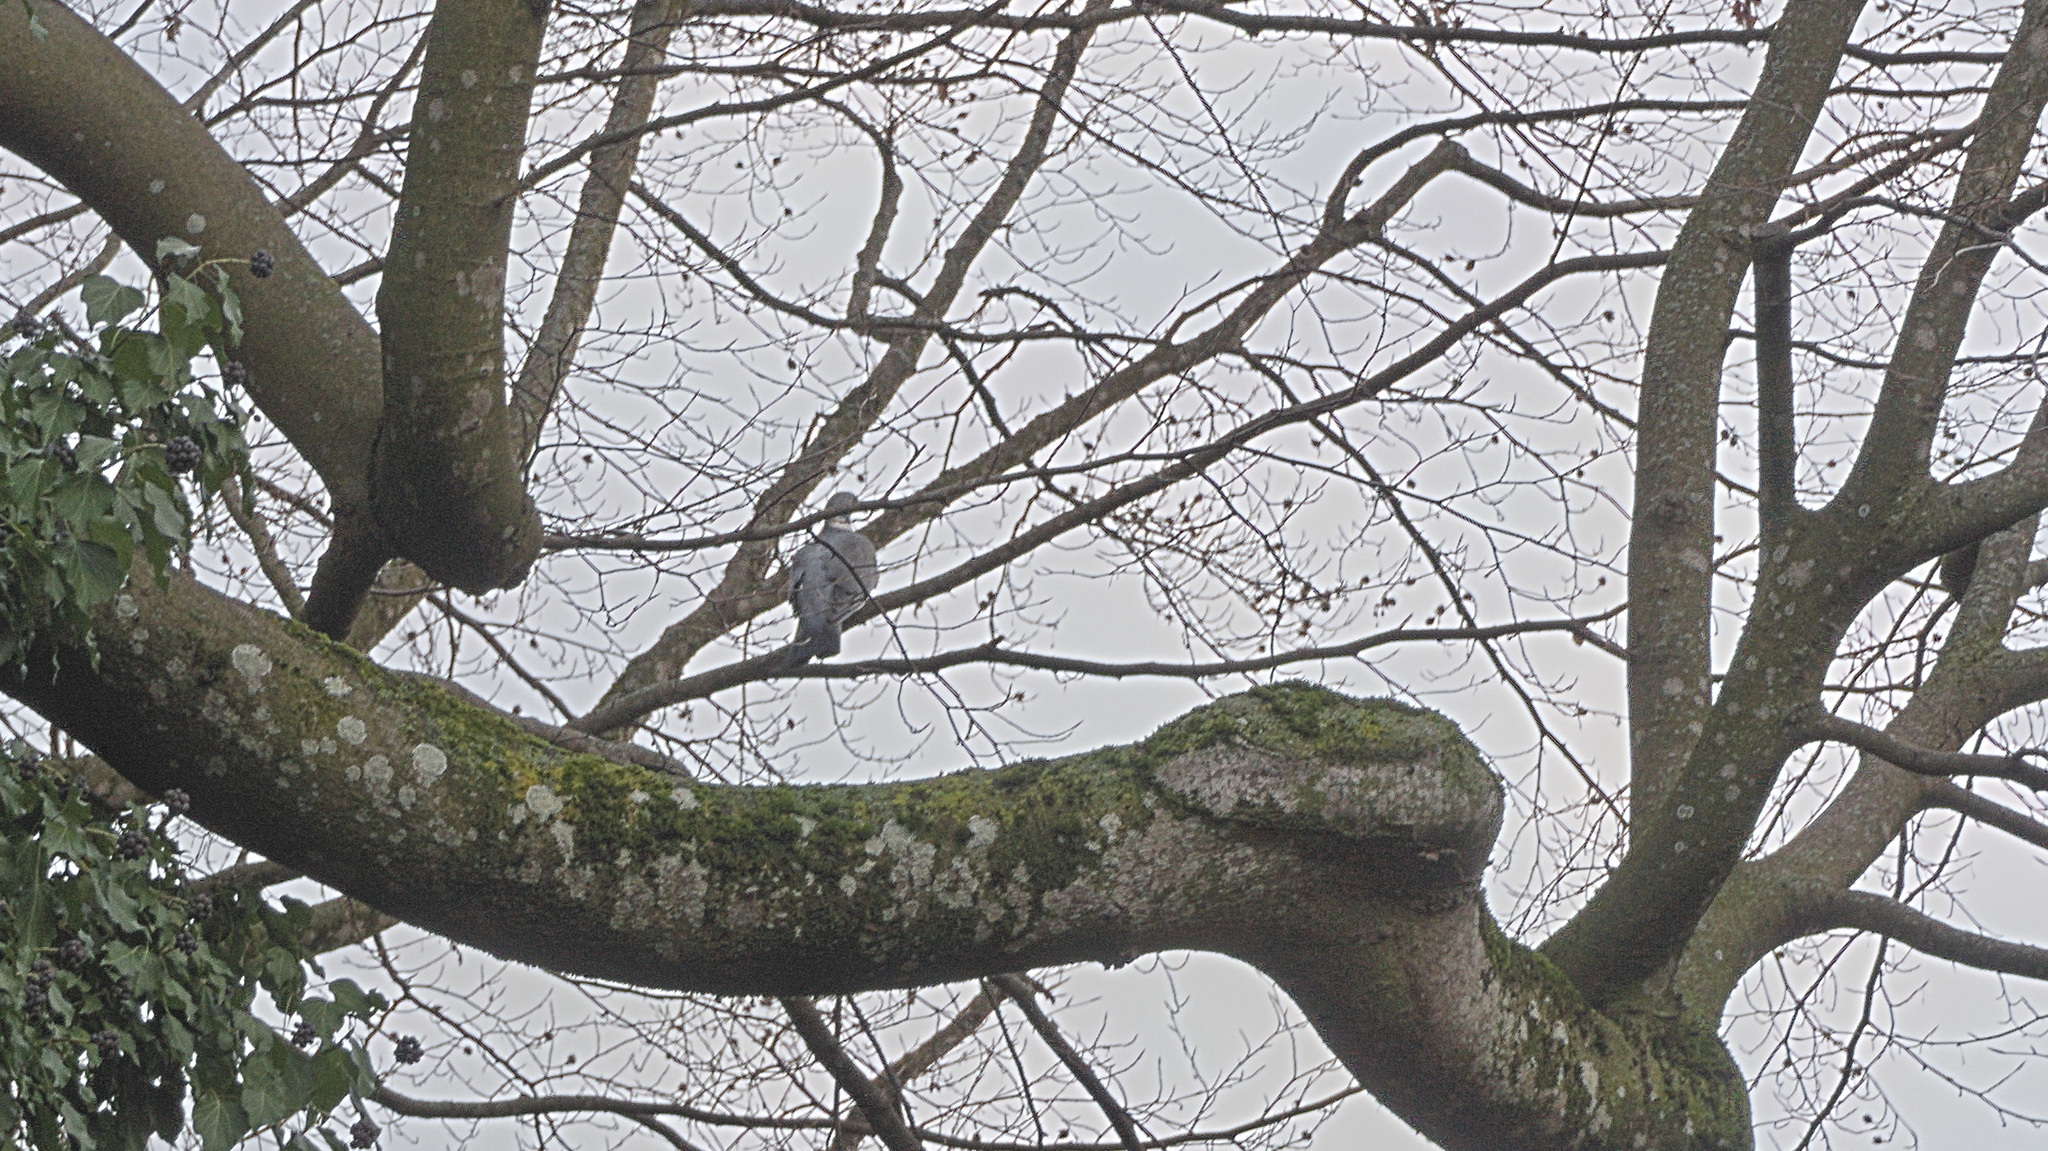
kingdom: Animalia
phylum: Chordata
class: Aves
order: Columbiformes
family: Columbidae
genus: Columba
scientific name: Columba palumbus
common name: Common wood pigeon
